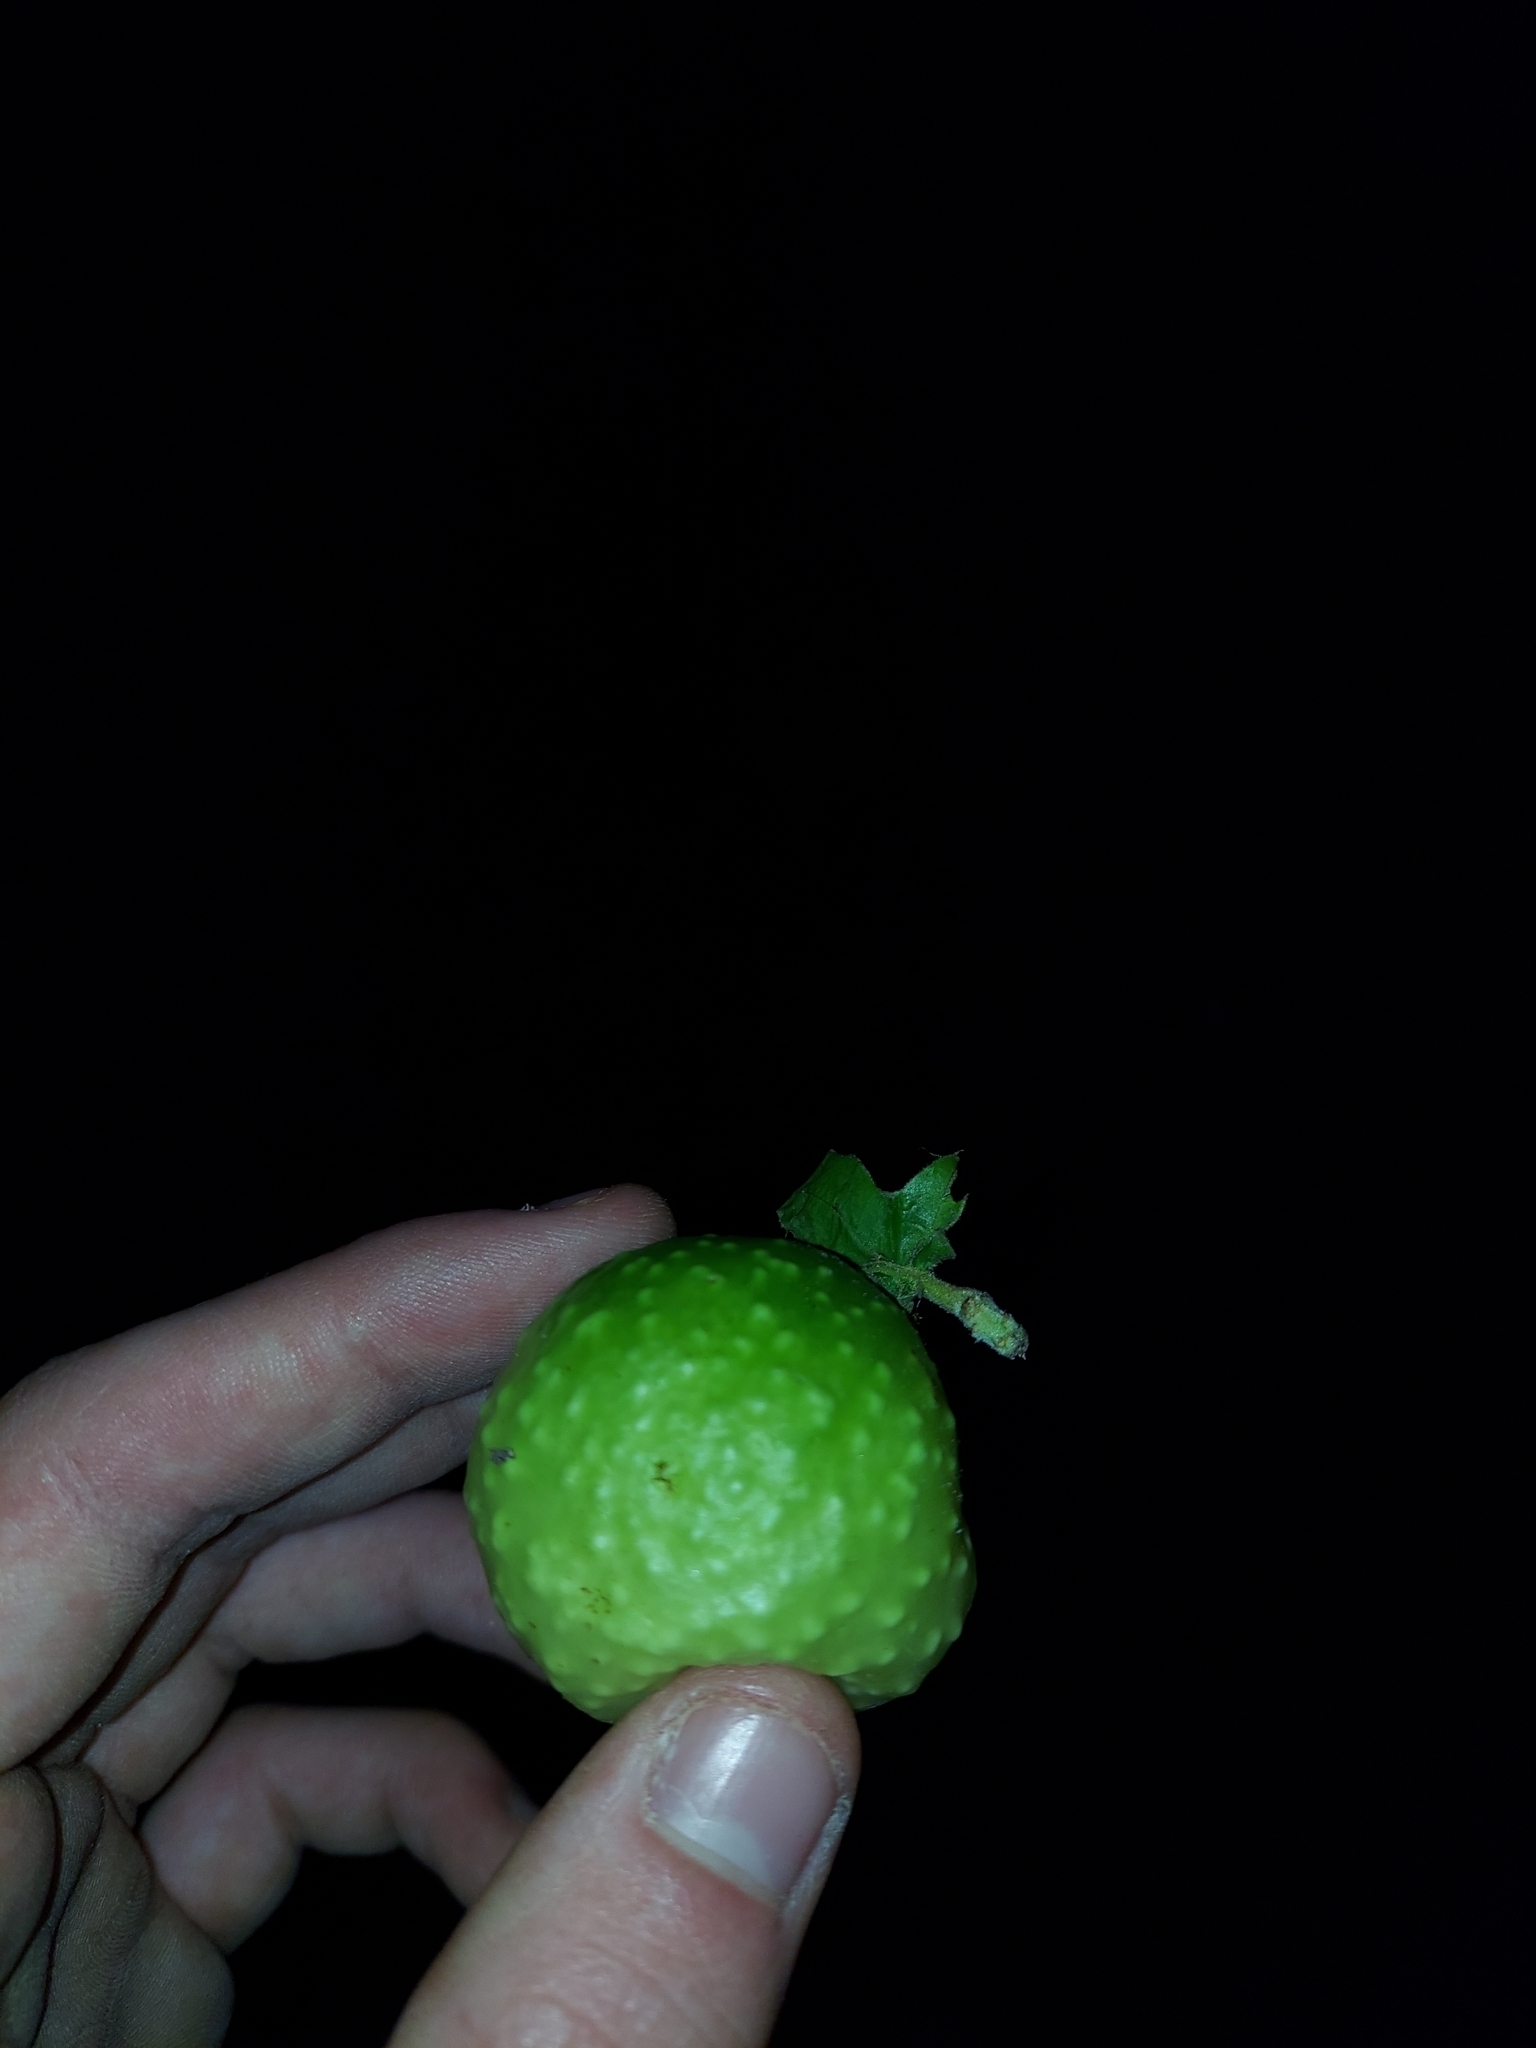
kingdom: Animalia
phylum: Arthropoda
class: Insecta
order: Hymenoptera
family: Cynipidae
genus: Amphibolips
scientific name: Amphibolips
